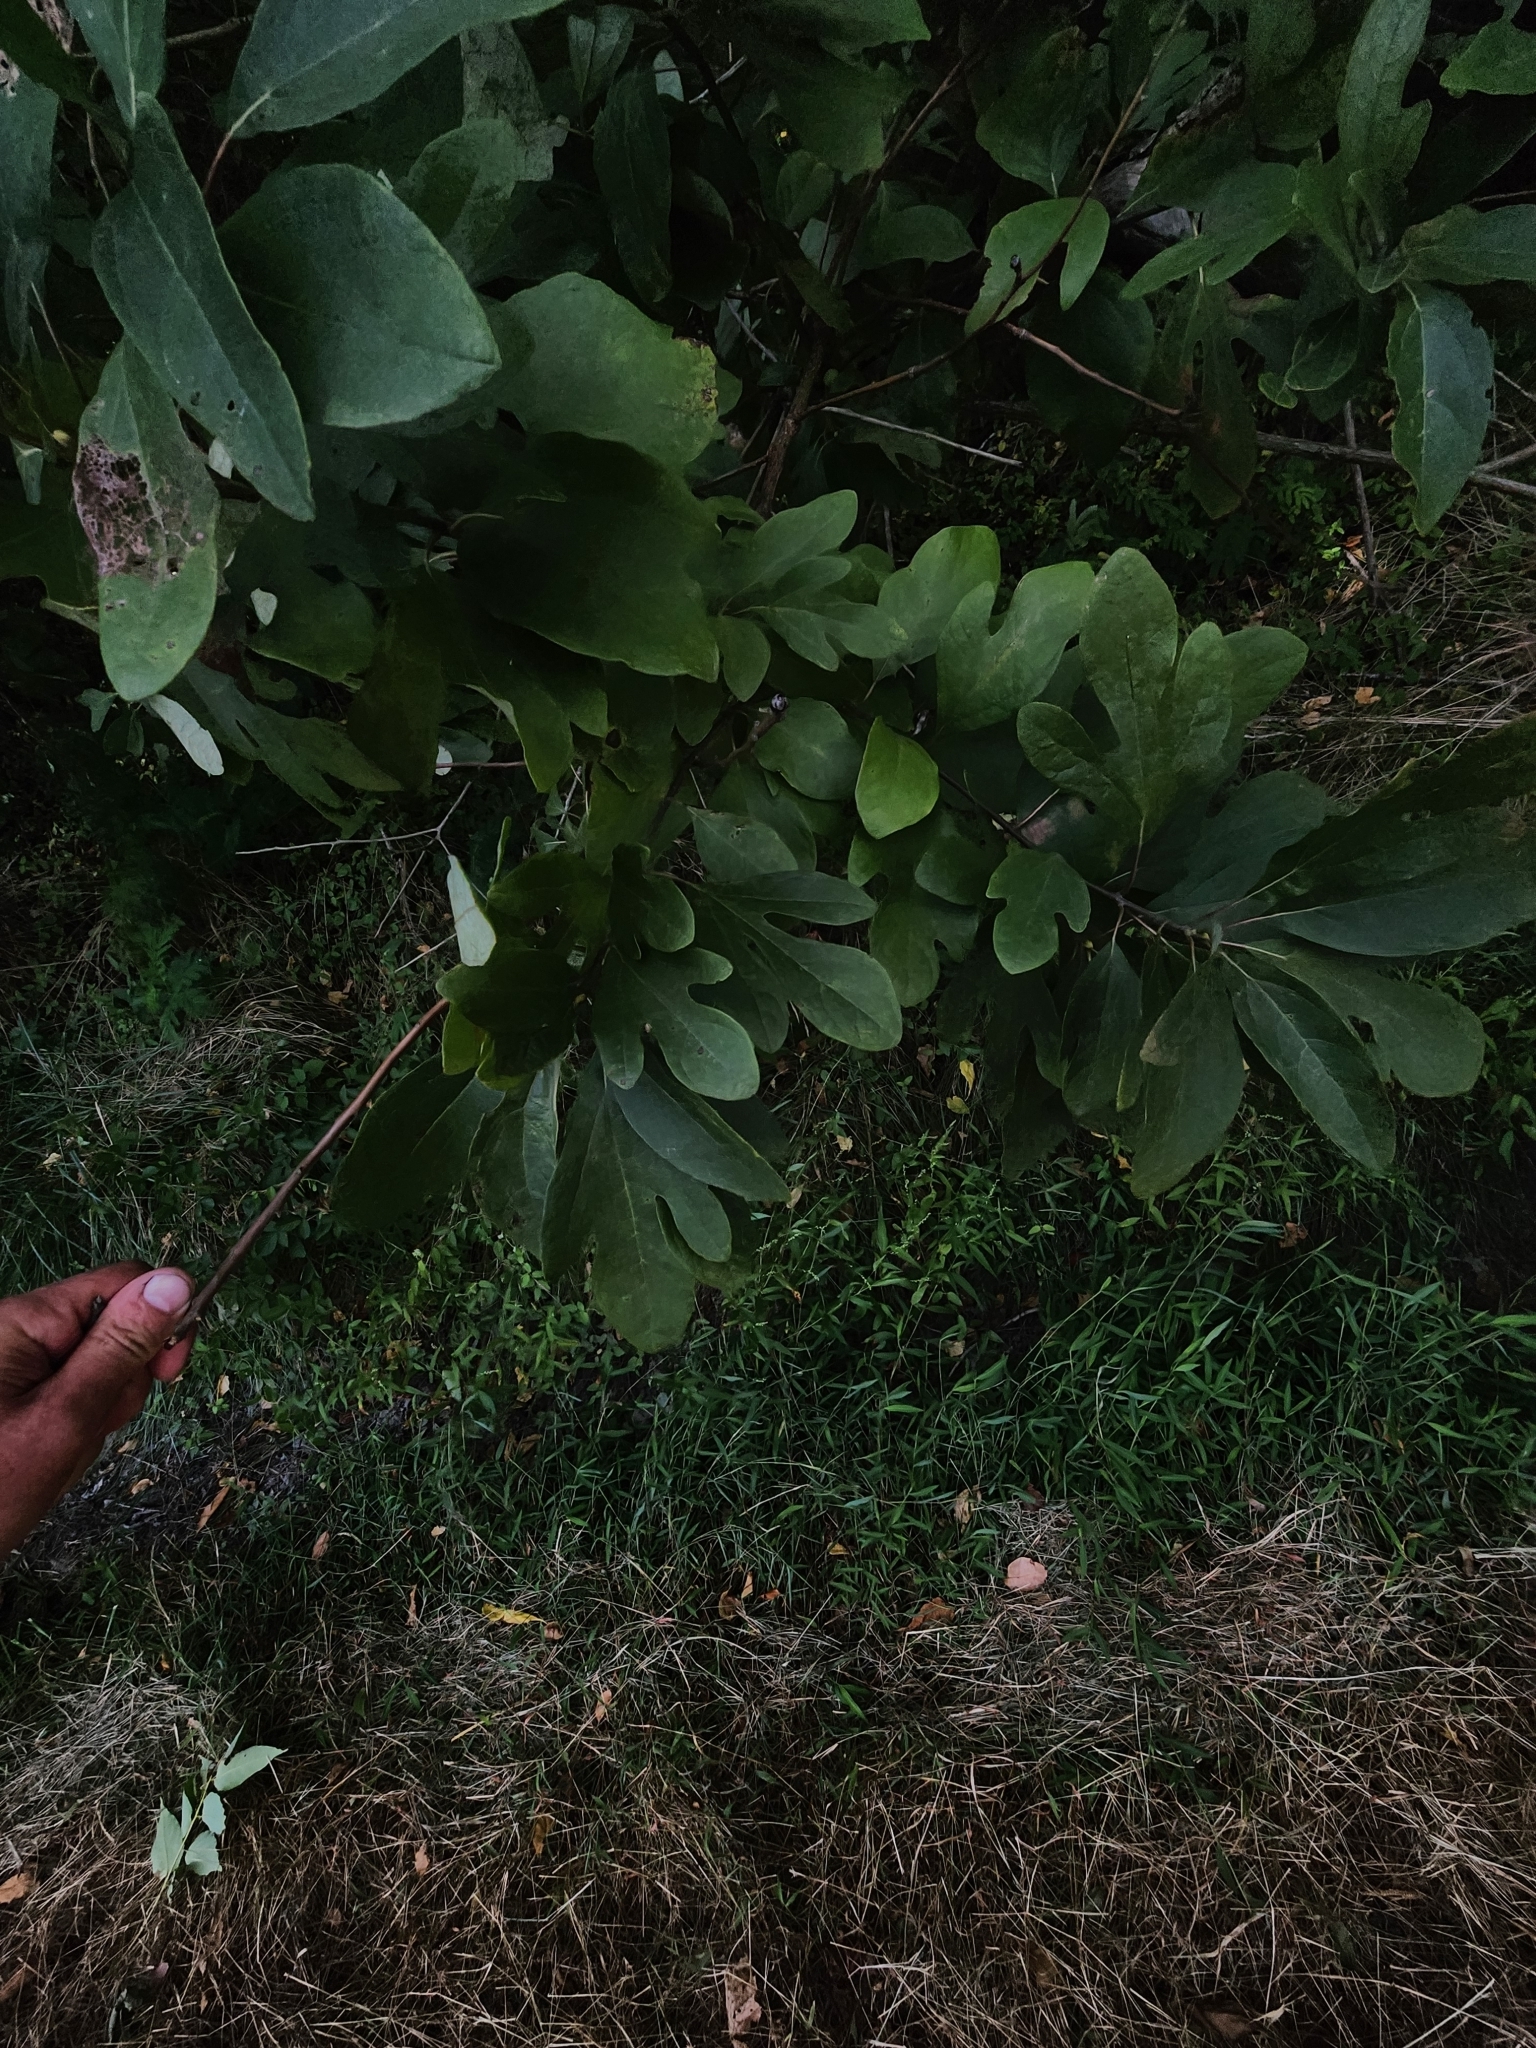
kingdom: Plantae
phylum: Tracheophyta
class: Magnoliopsida
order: Sapindales
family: Simaroubaceae
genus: Ailanthus
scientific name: Ailanthus altissima
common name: Tree-of-heaven
